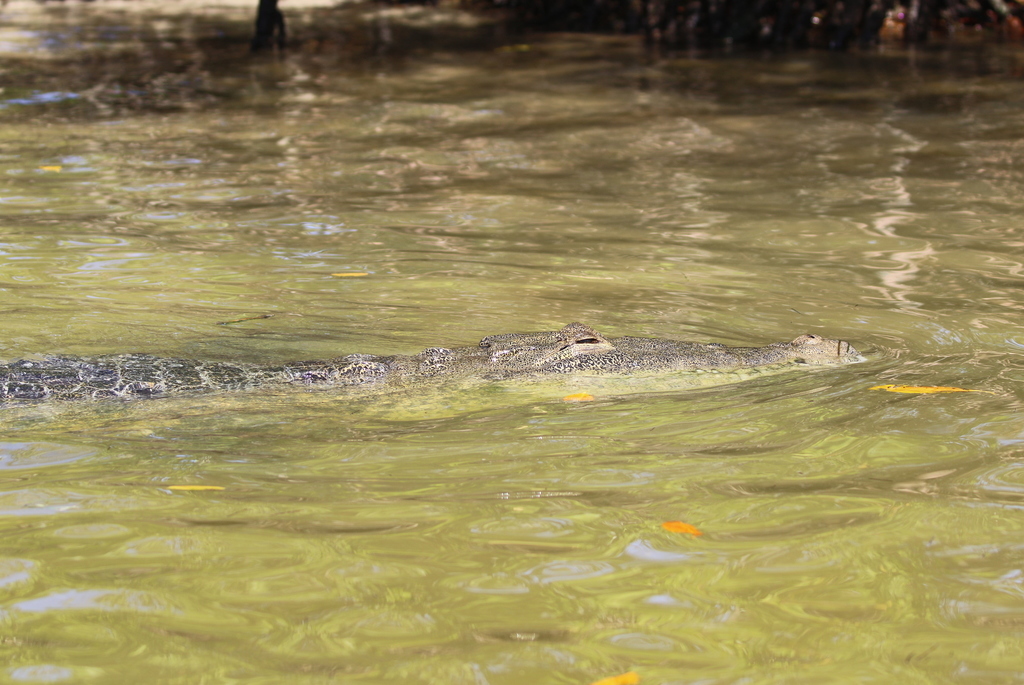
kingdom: Animalia
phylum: Chordata
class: Crocodylia
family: Crocodylidae
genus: Crocodylus
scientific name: Crocodylus moreletii
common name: Morelet's crocodile
